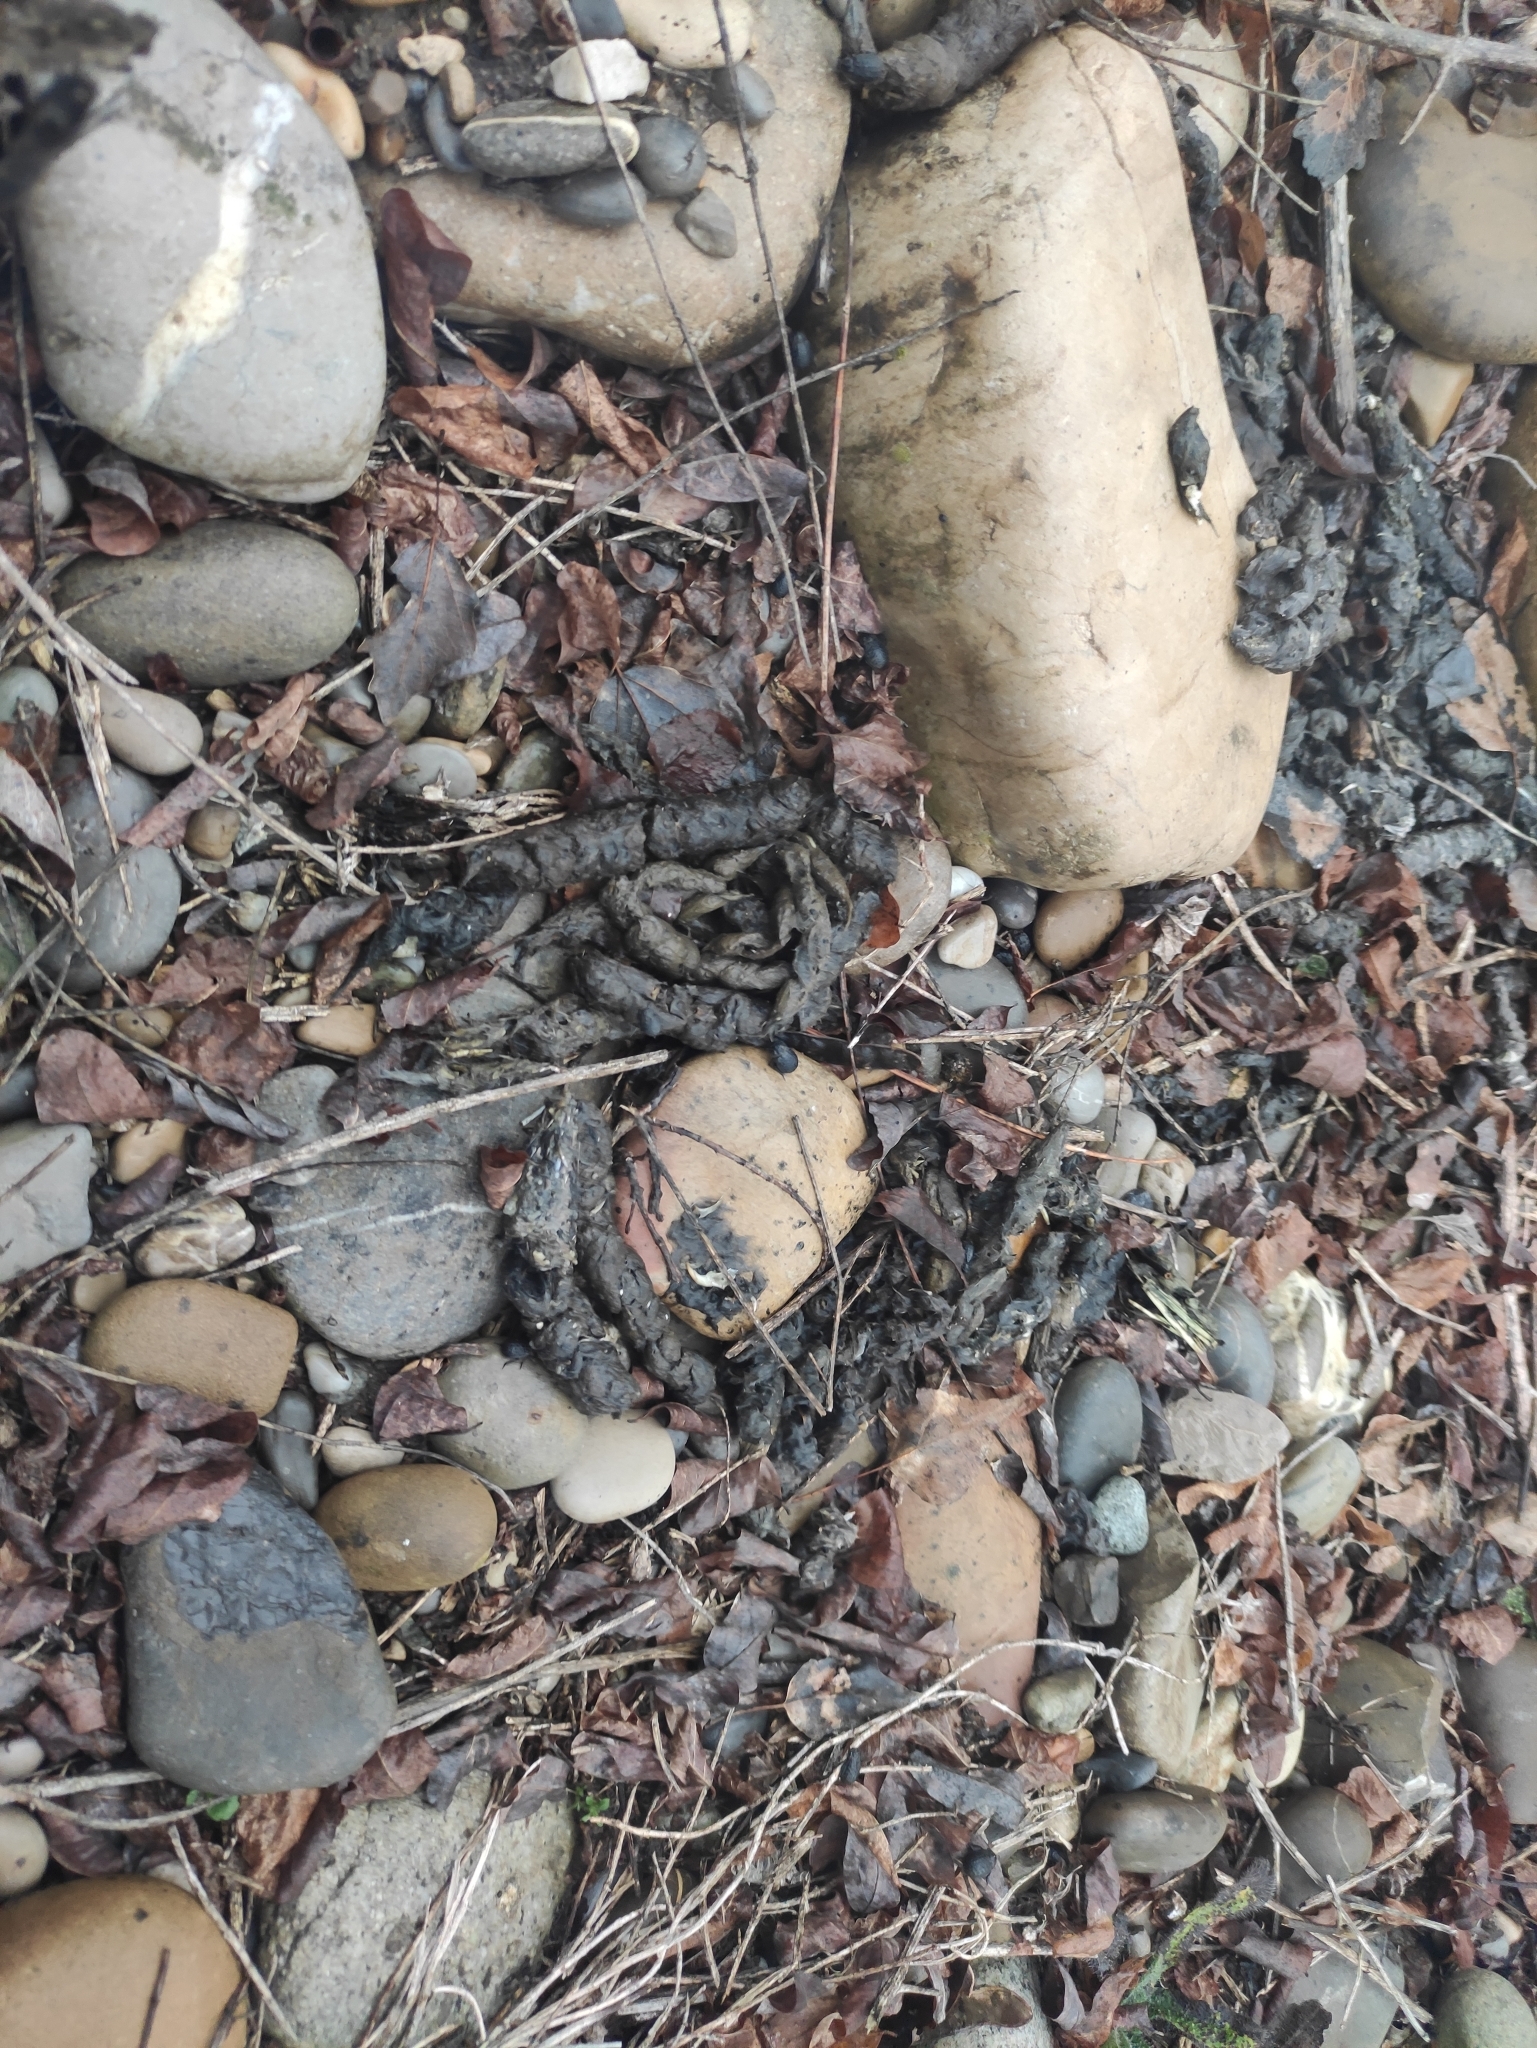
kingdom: Animalia
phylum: Chordata
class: Mammalia
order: Carnivora
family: Viverridae
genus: Genetta
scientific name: Genetta genetta
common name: Common genet
